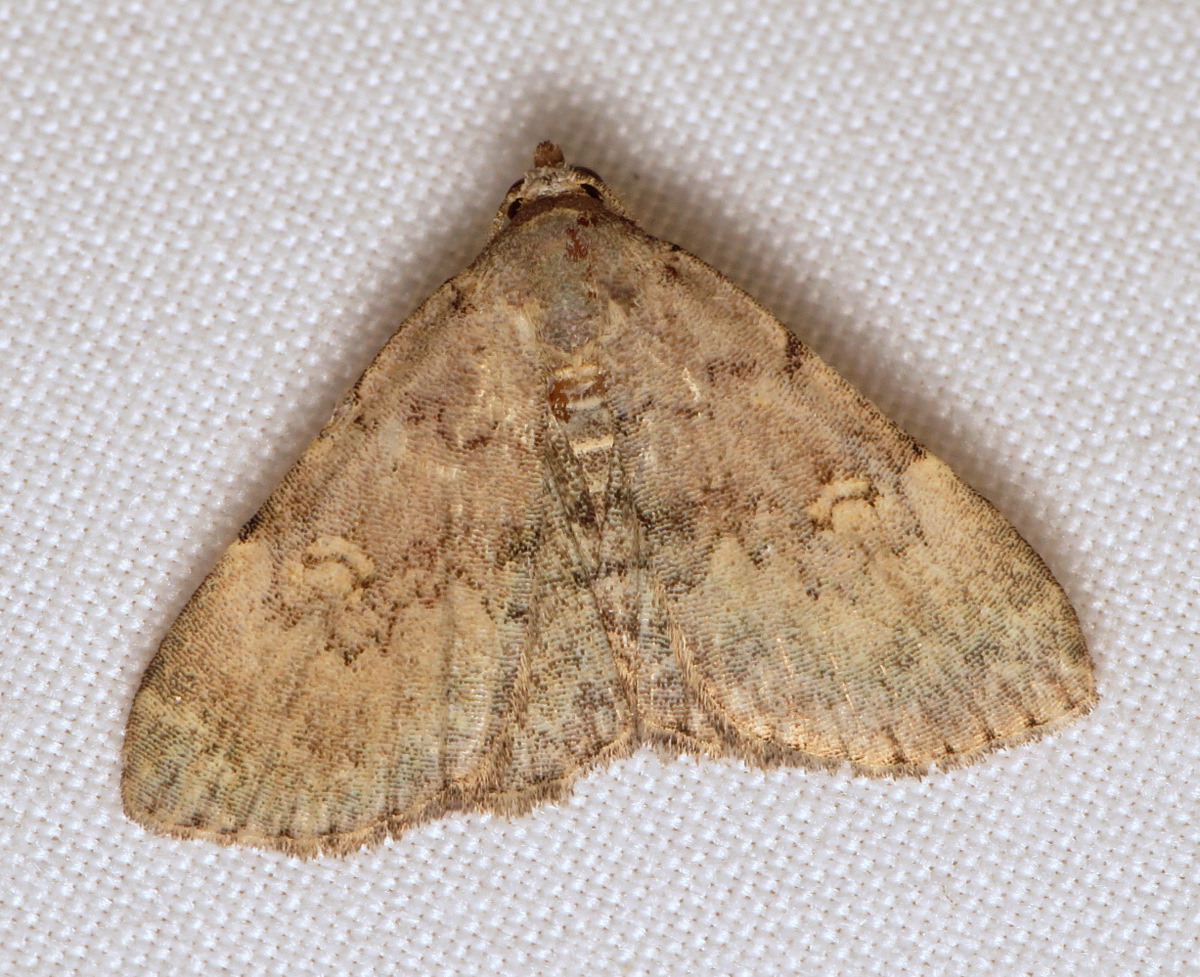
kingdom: Animalia
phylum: Arthropoda
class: Insecta
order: Lepidoptera
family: Erebidae
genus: Idia
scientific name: Idia aemula
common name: Common idia moth
